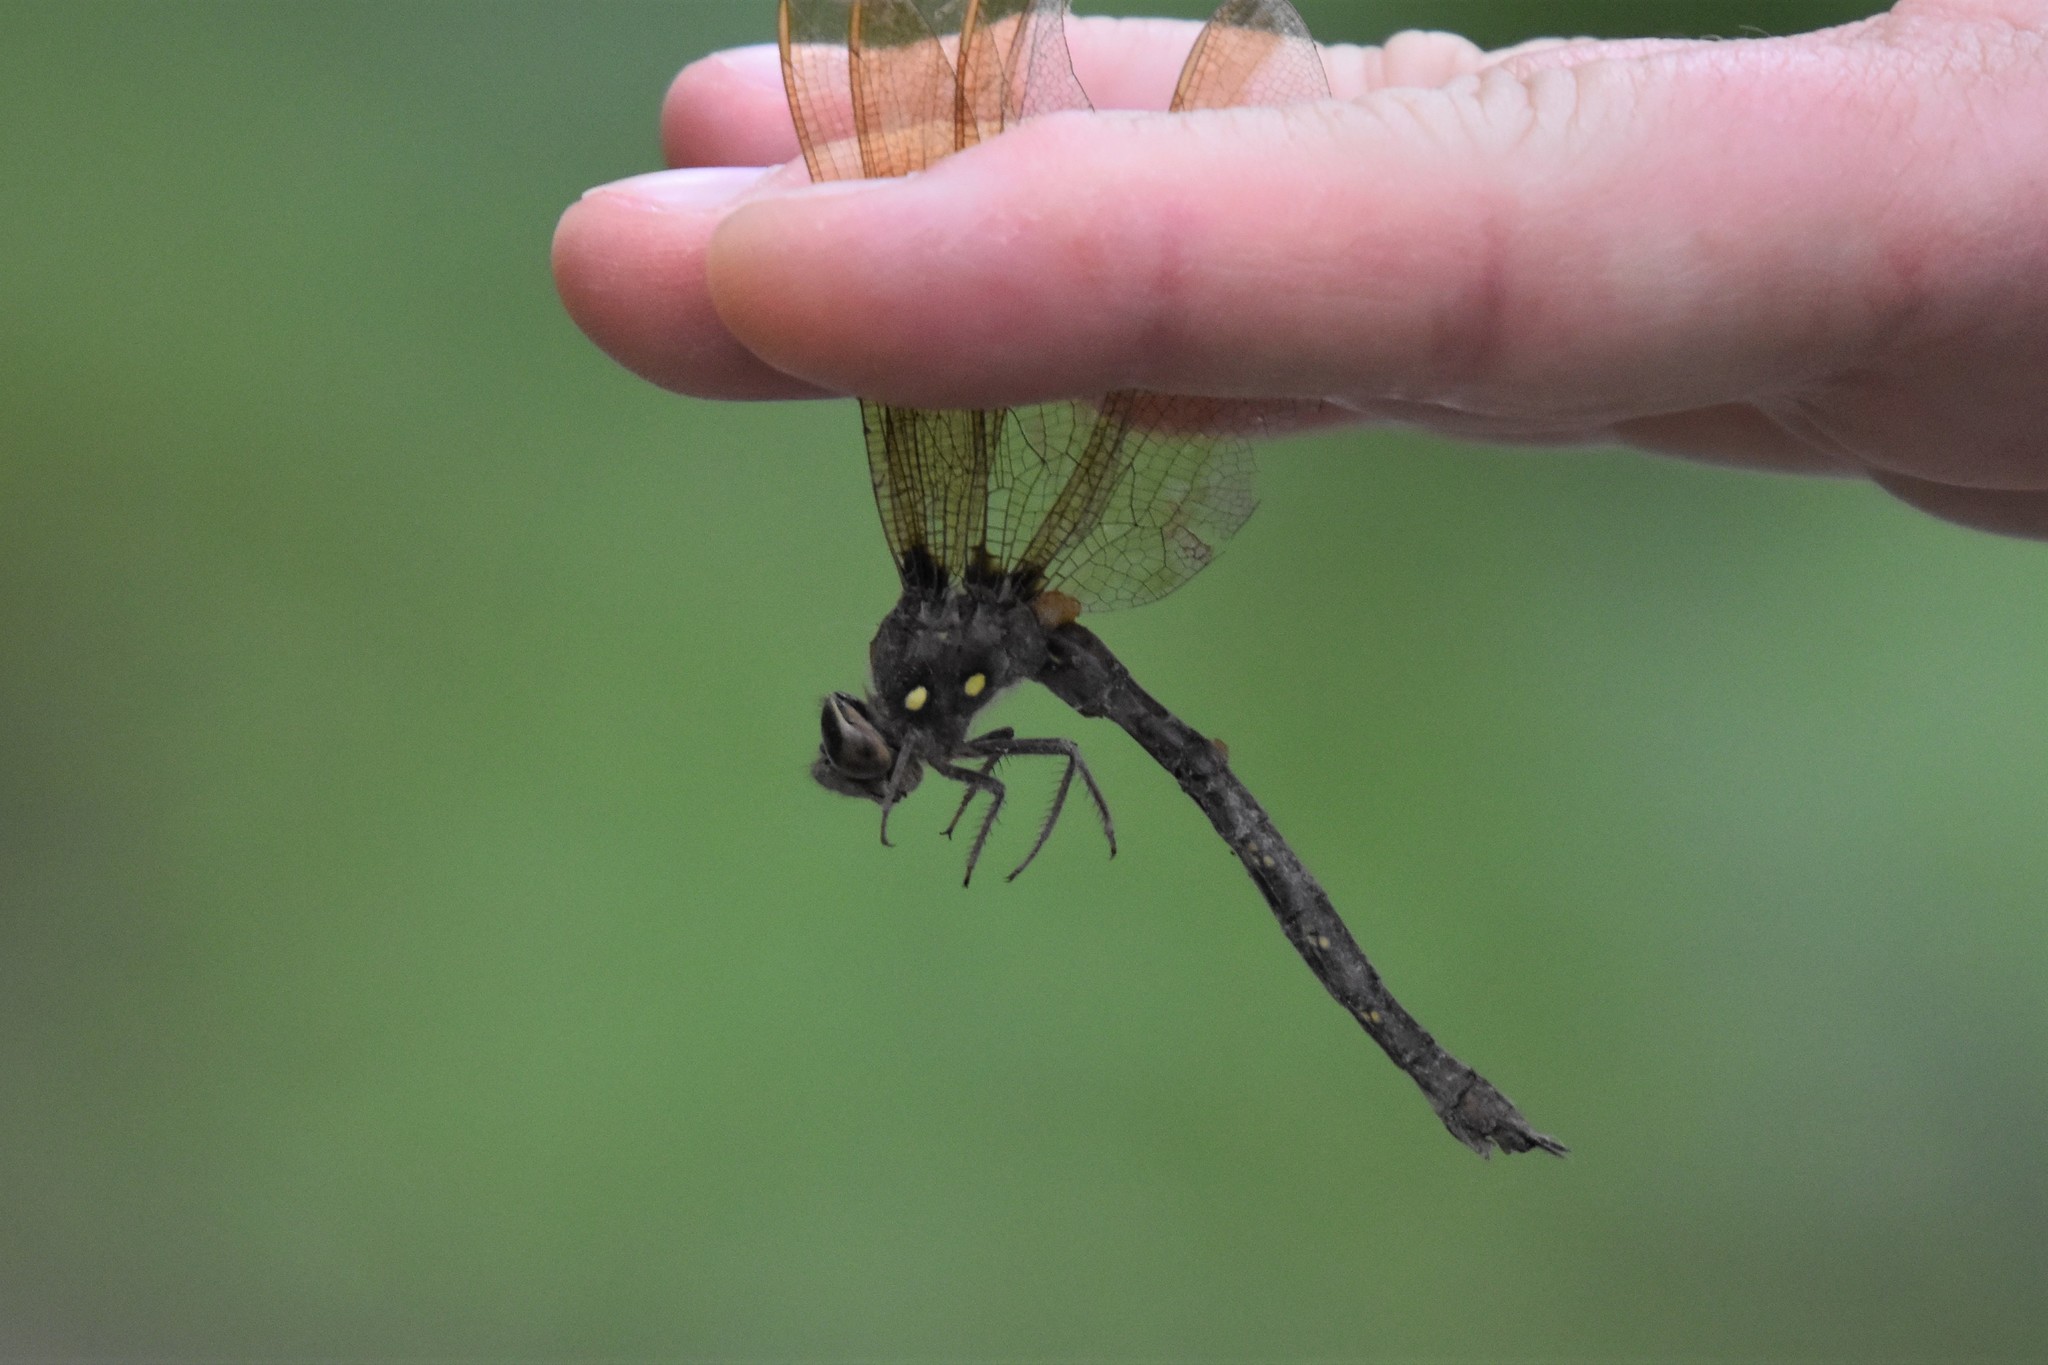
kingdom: Animalia
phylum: Arthropoda
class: Insecta
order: Odonata
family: Aeshnidae
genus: Boyeria
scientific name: Boyeria vinosa
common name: Fawn darner
